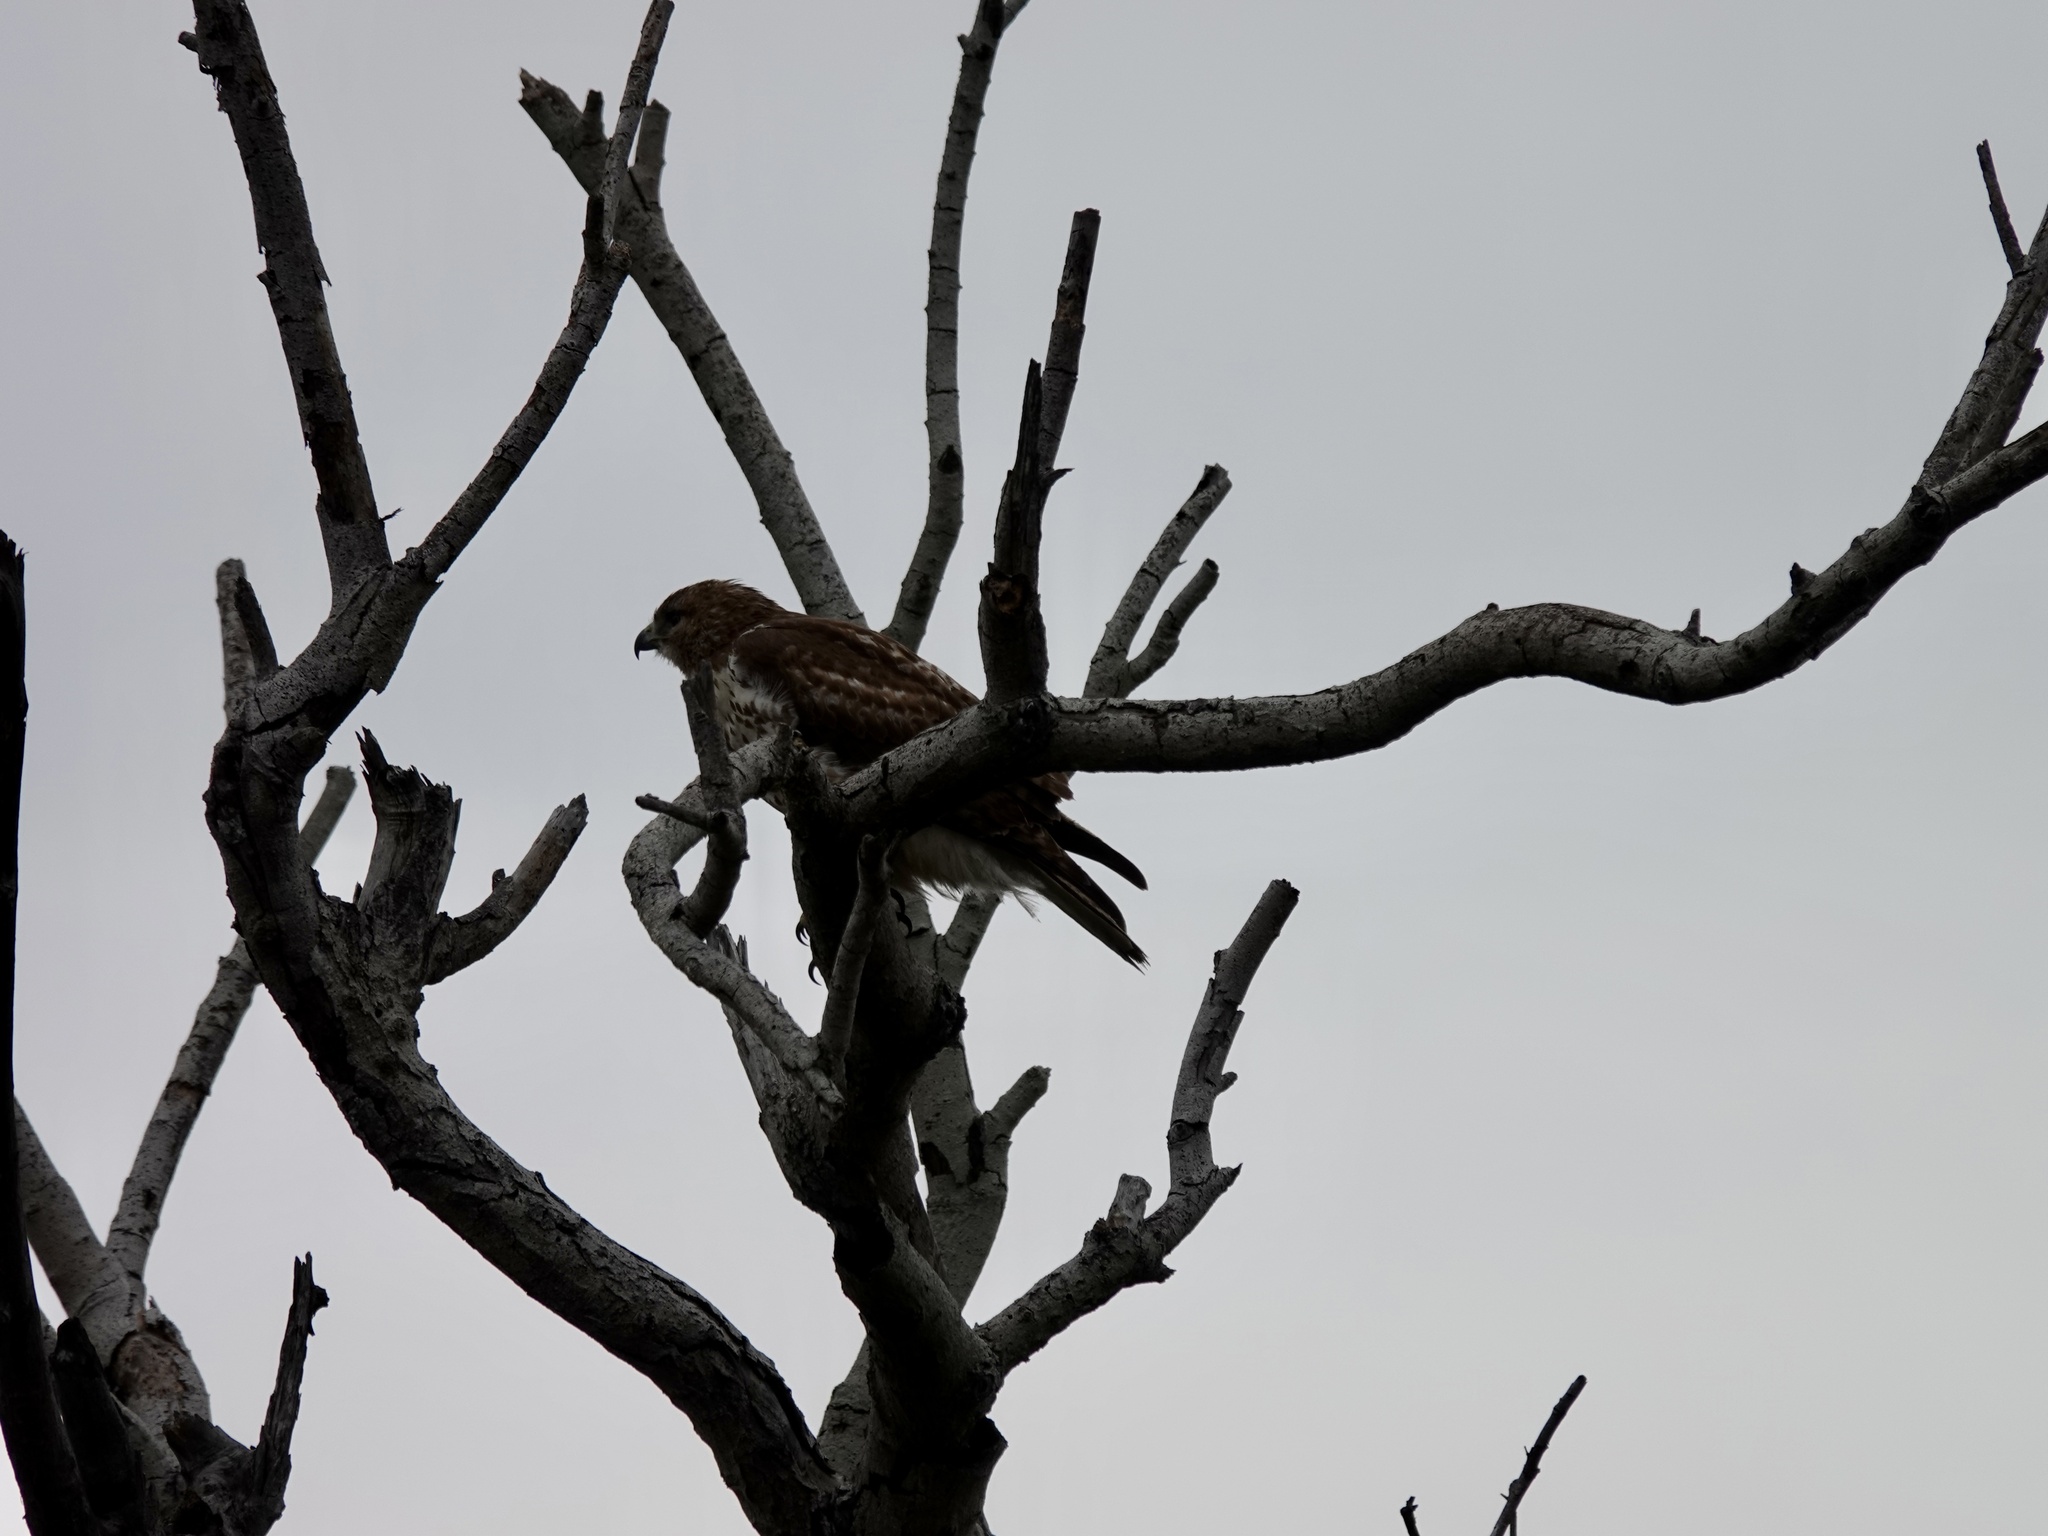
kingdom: Animalia
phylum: Chordata
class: Aves
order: Accipitriformes
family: Accipitridae
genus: Buteo
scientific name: Buteo jamaicensis
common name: Red-tailed hawk
